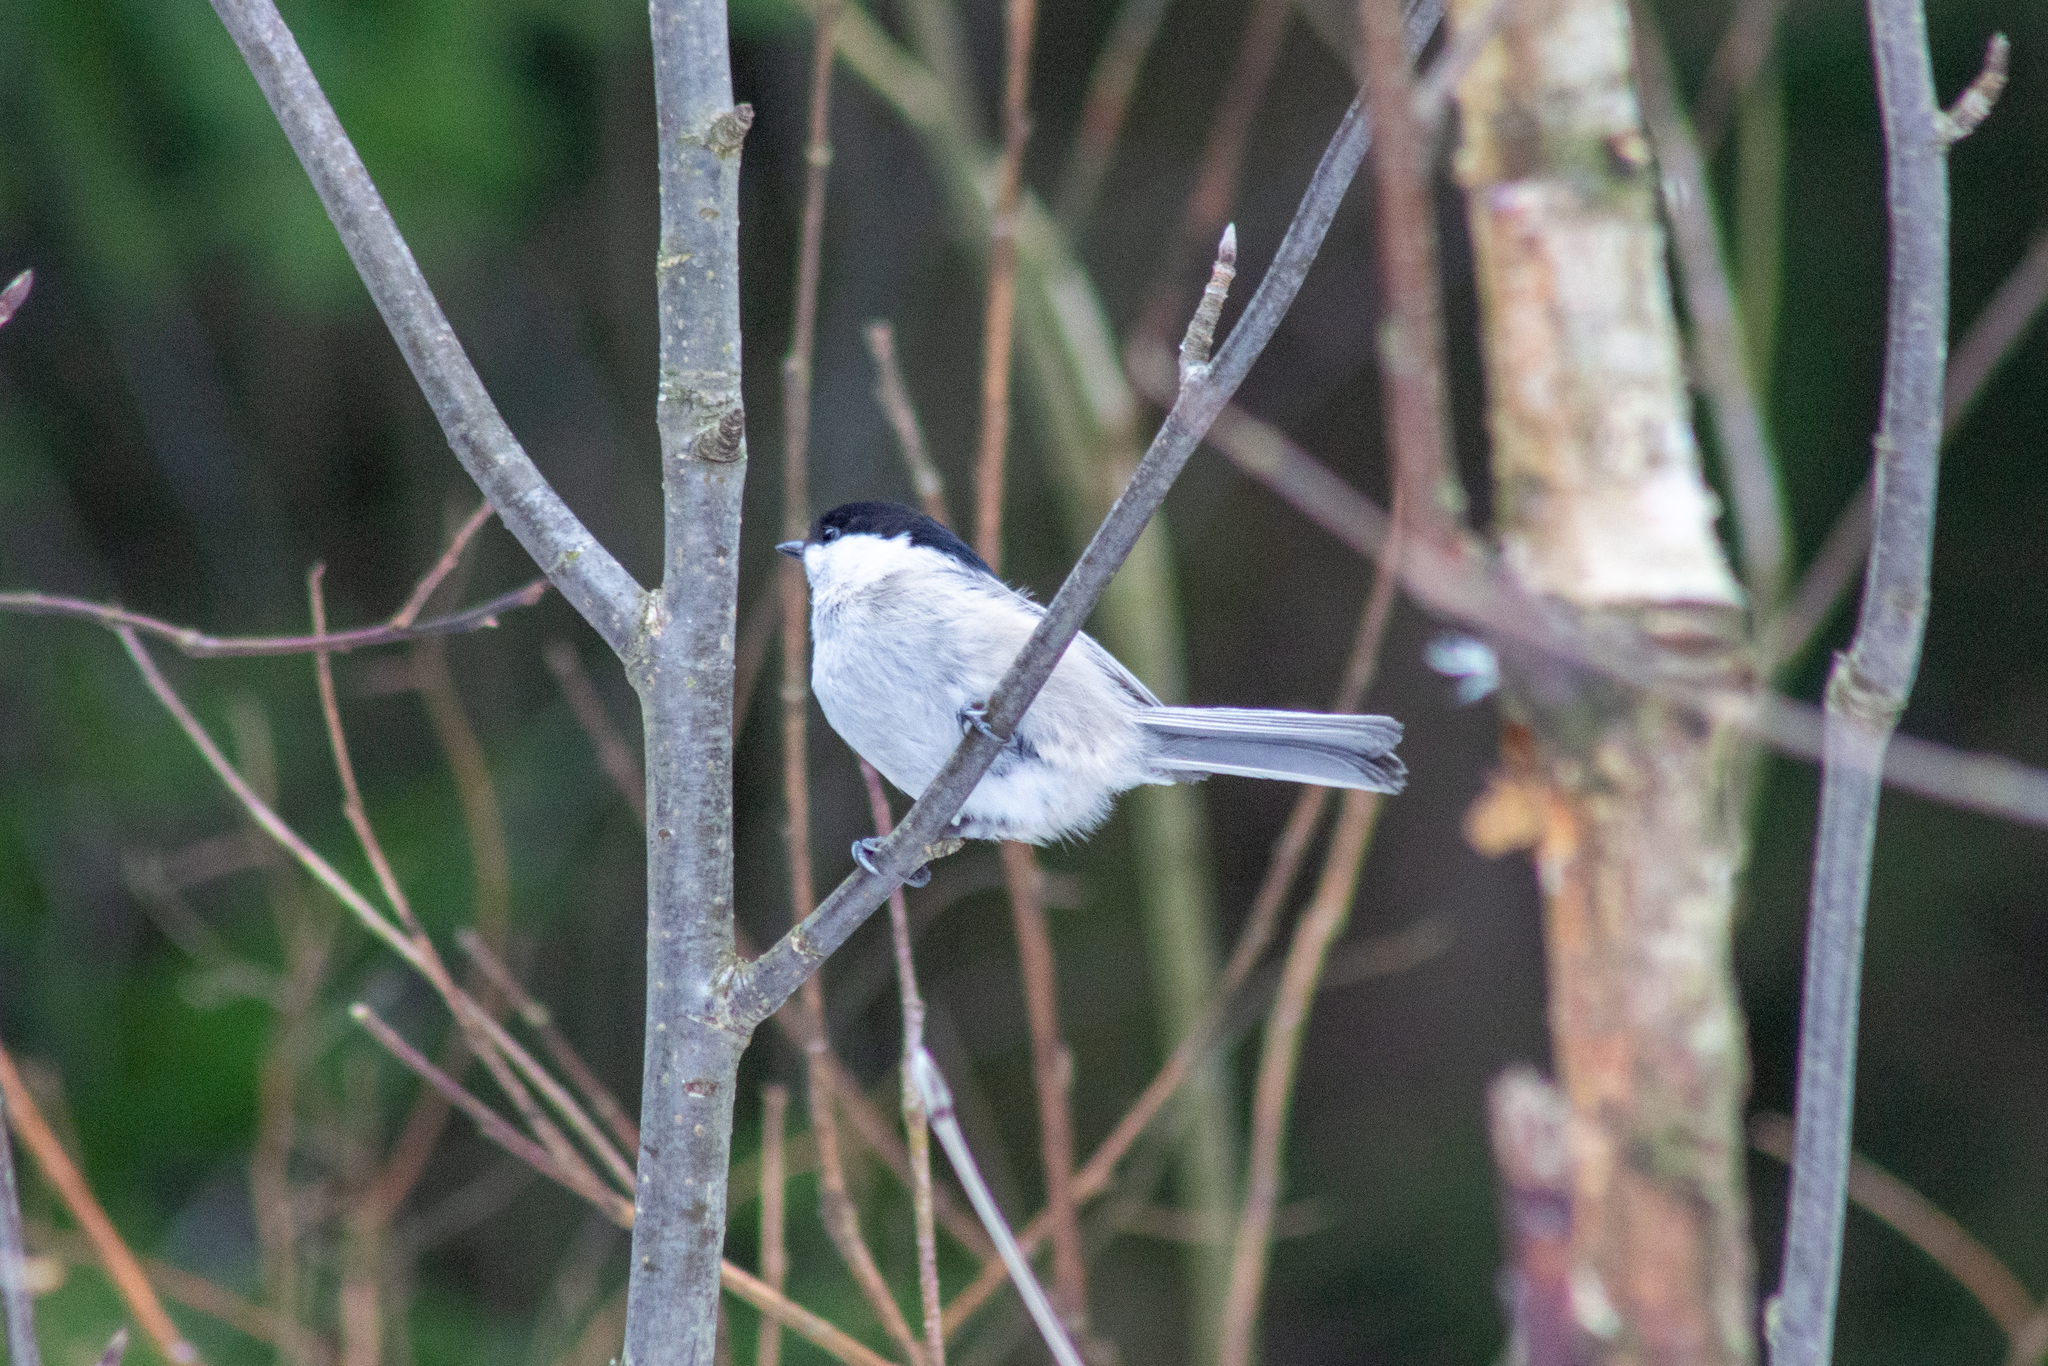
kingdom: Animalia
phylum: Chordata
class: Aves
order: Passeriformes
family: Paridae
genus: Poecile
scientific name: Poecile montanus
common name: Willow tit
